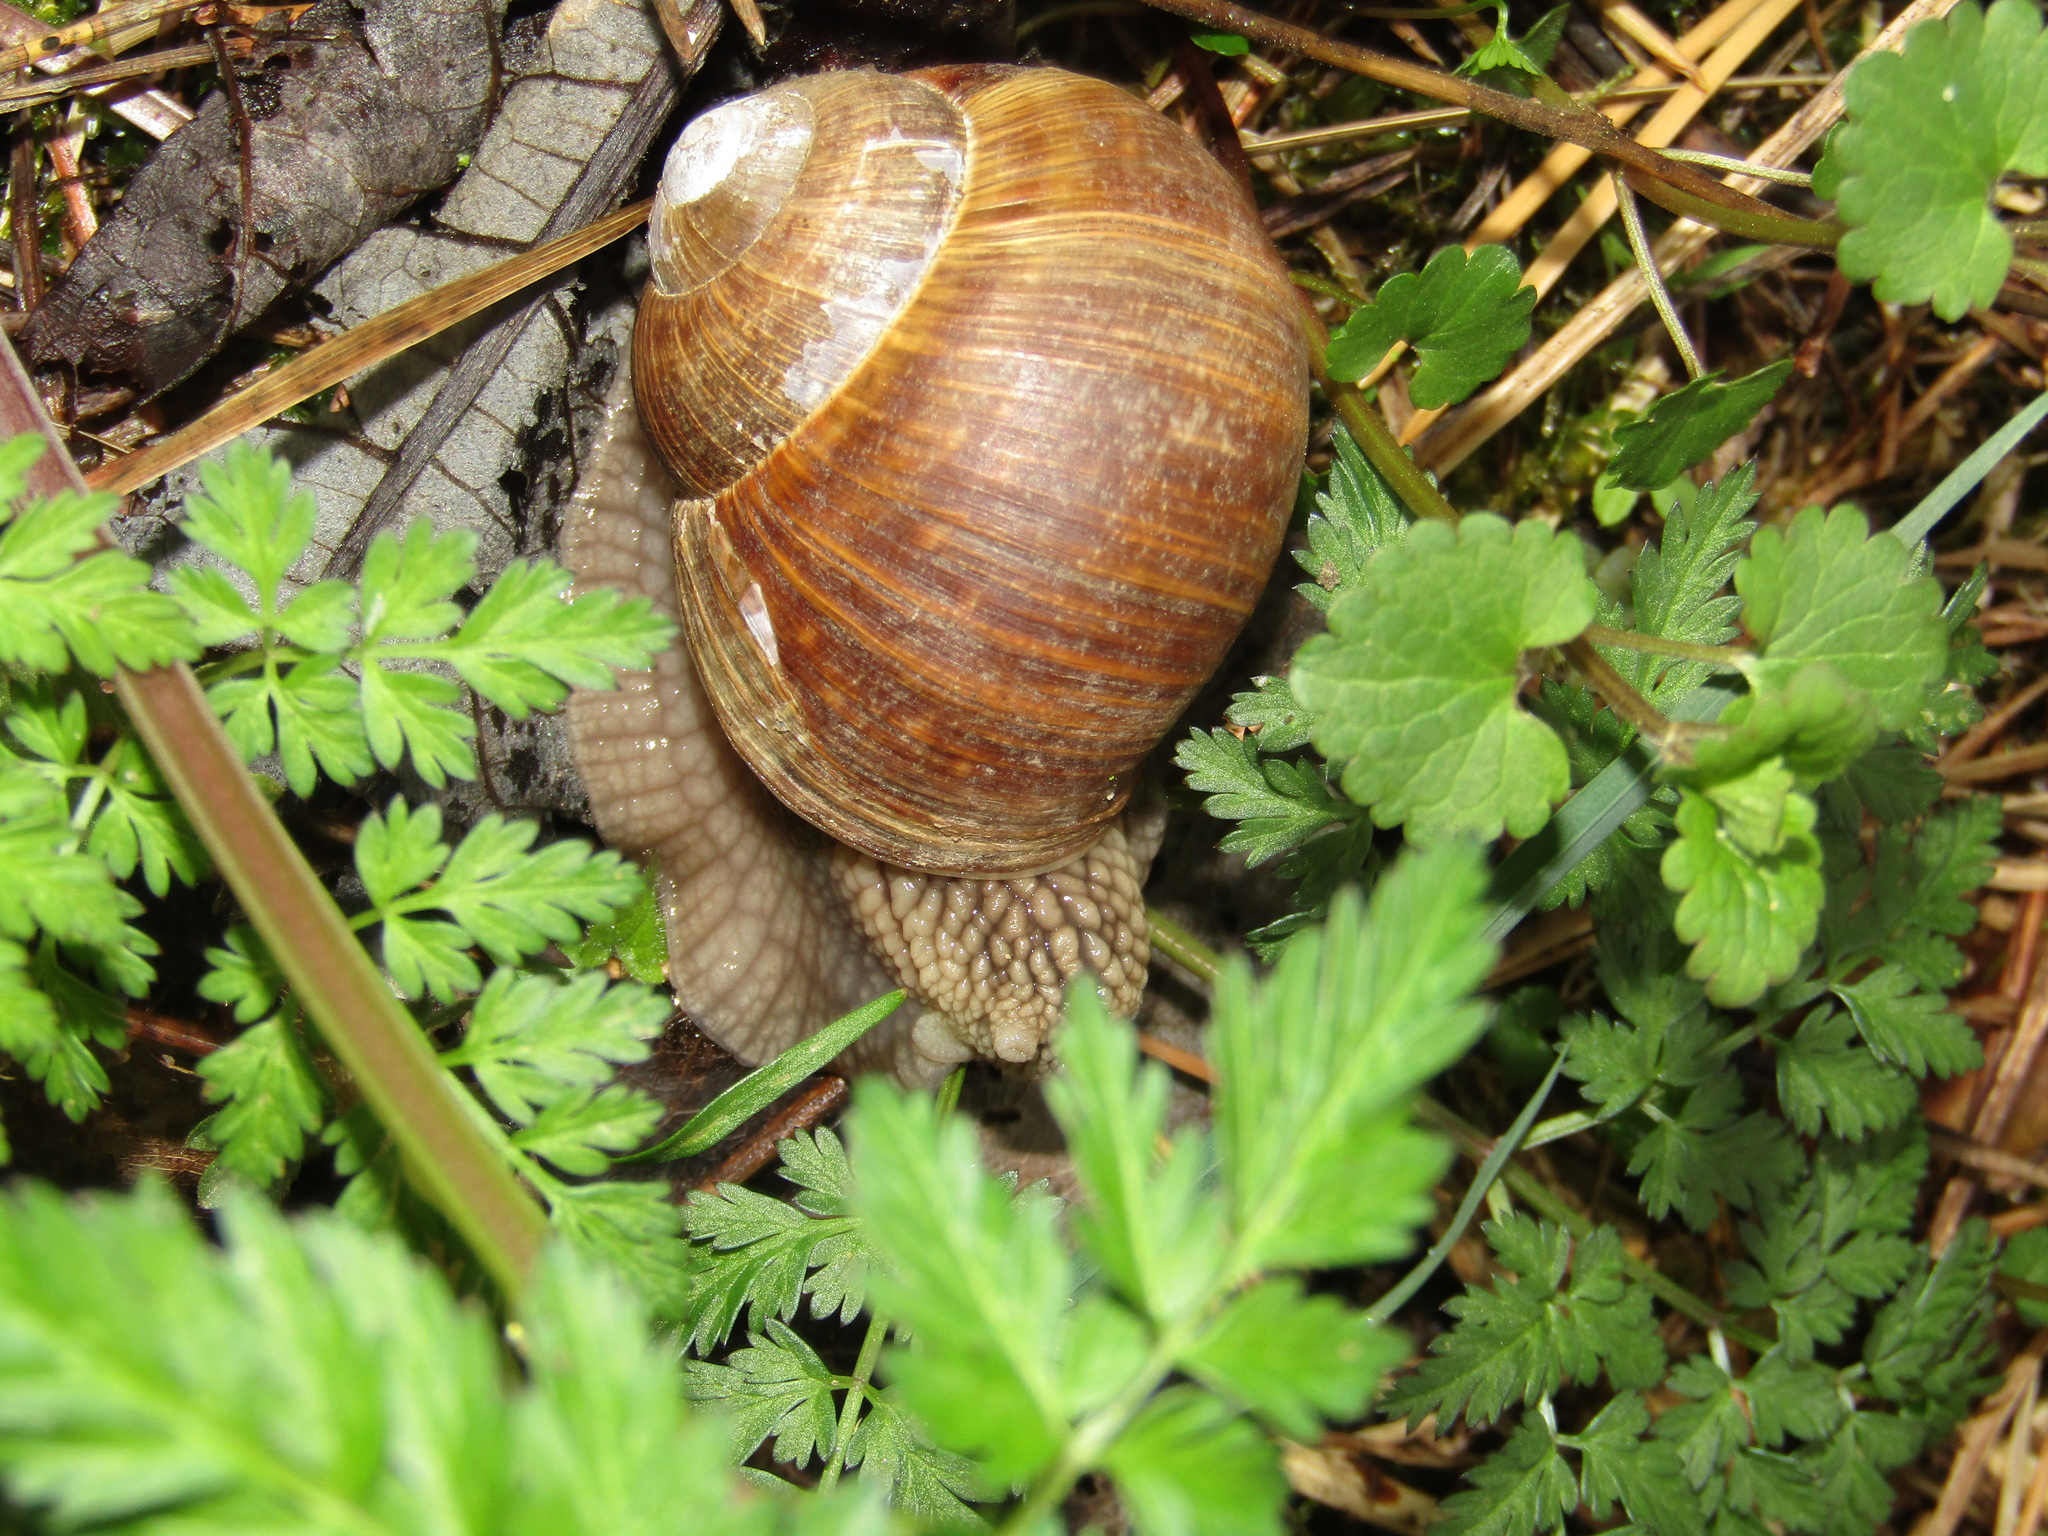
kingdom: Animalia
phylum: Mollusca
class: Gastropoda
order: Stylommatophora
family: Helicidae
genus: Helix
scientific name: Helix pomatia
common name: Roman snail
